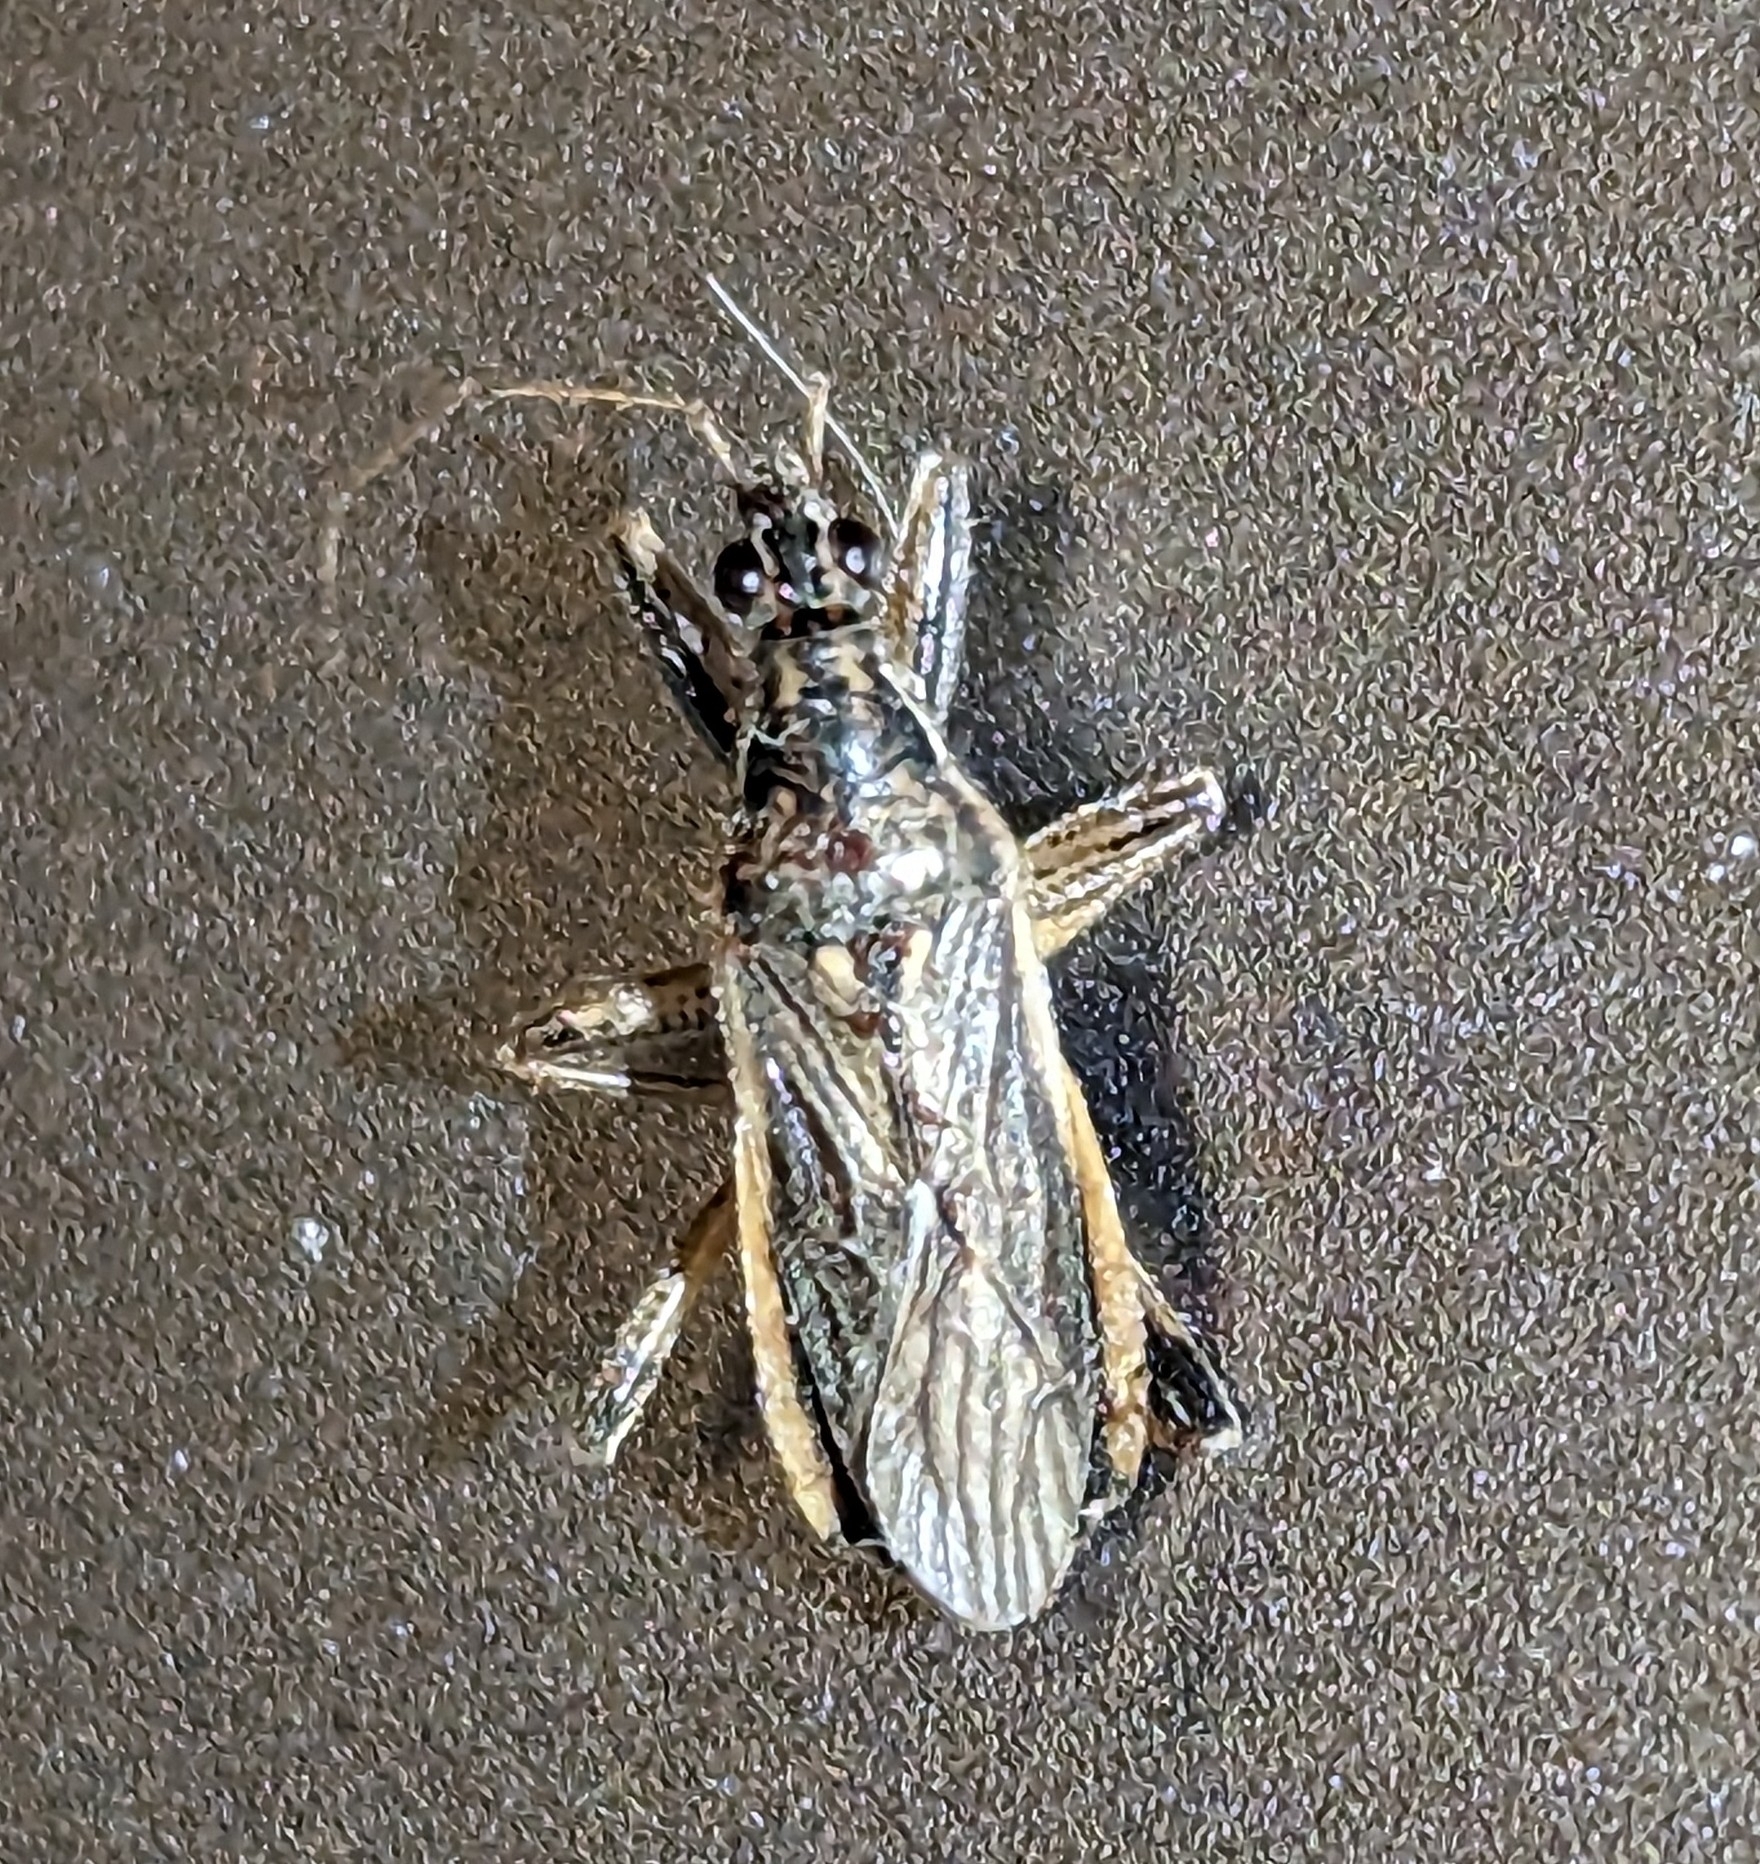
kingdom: Animalia
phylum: Arthropoda
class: Insecta
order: Hemiptera
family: Nabidae
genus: Himacerus
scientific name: Himacerus major
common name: Damsel bug
